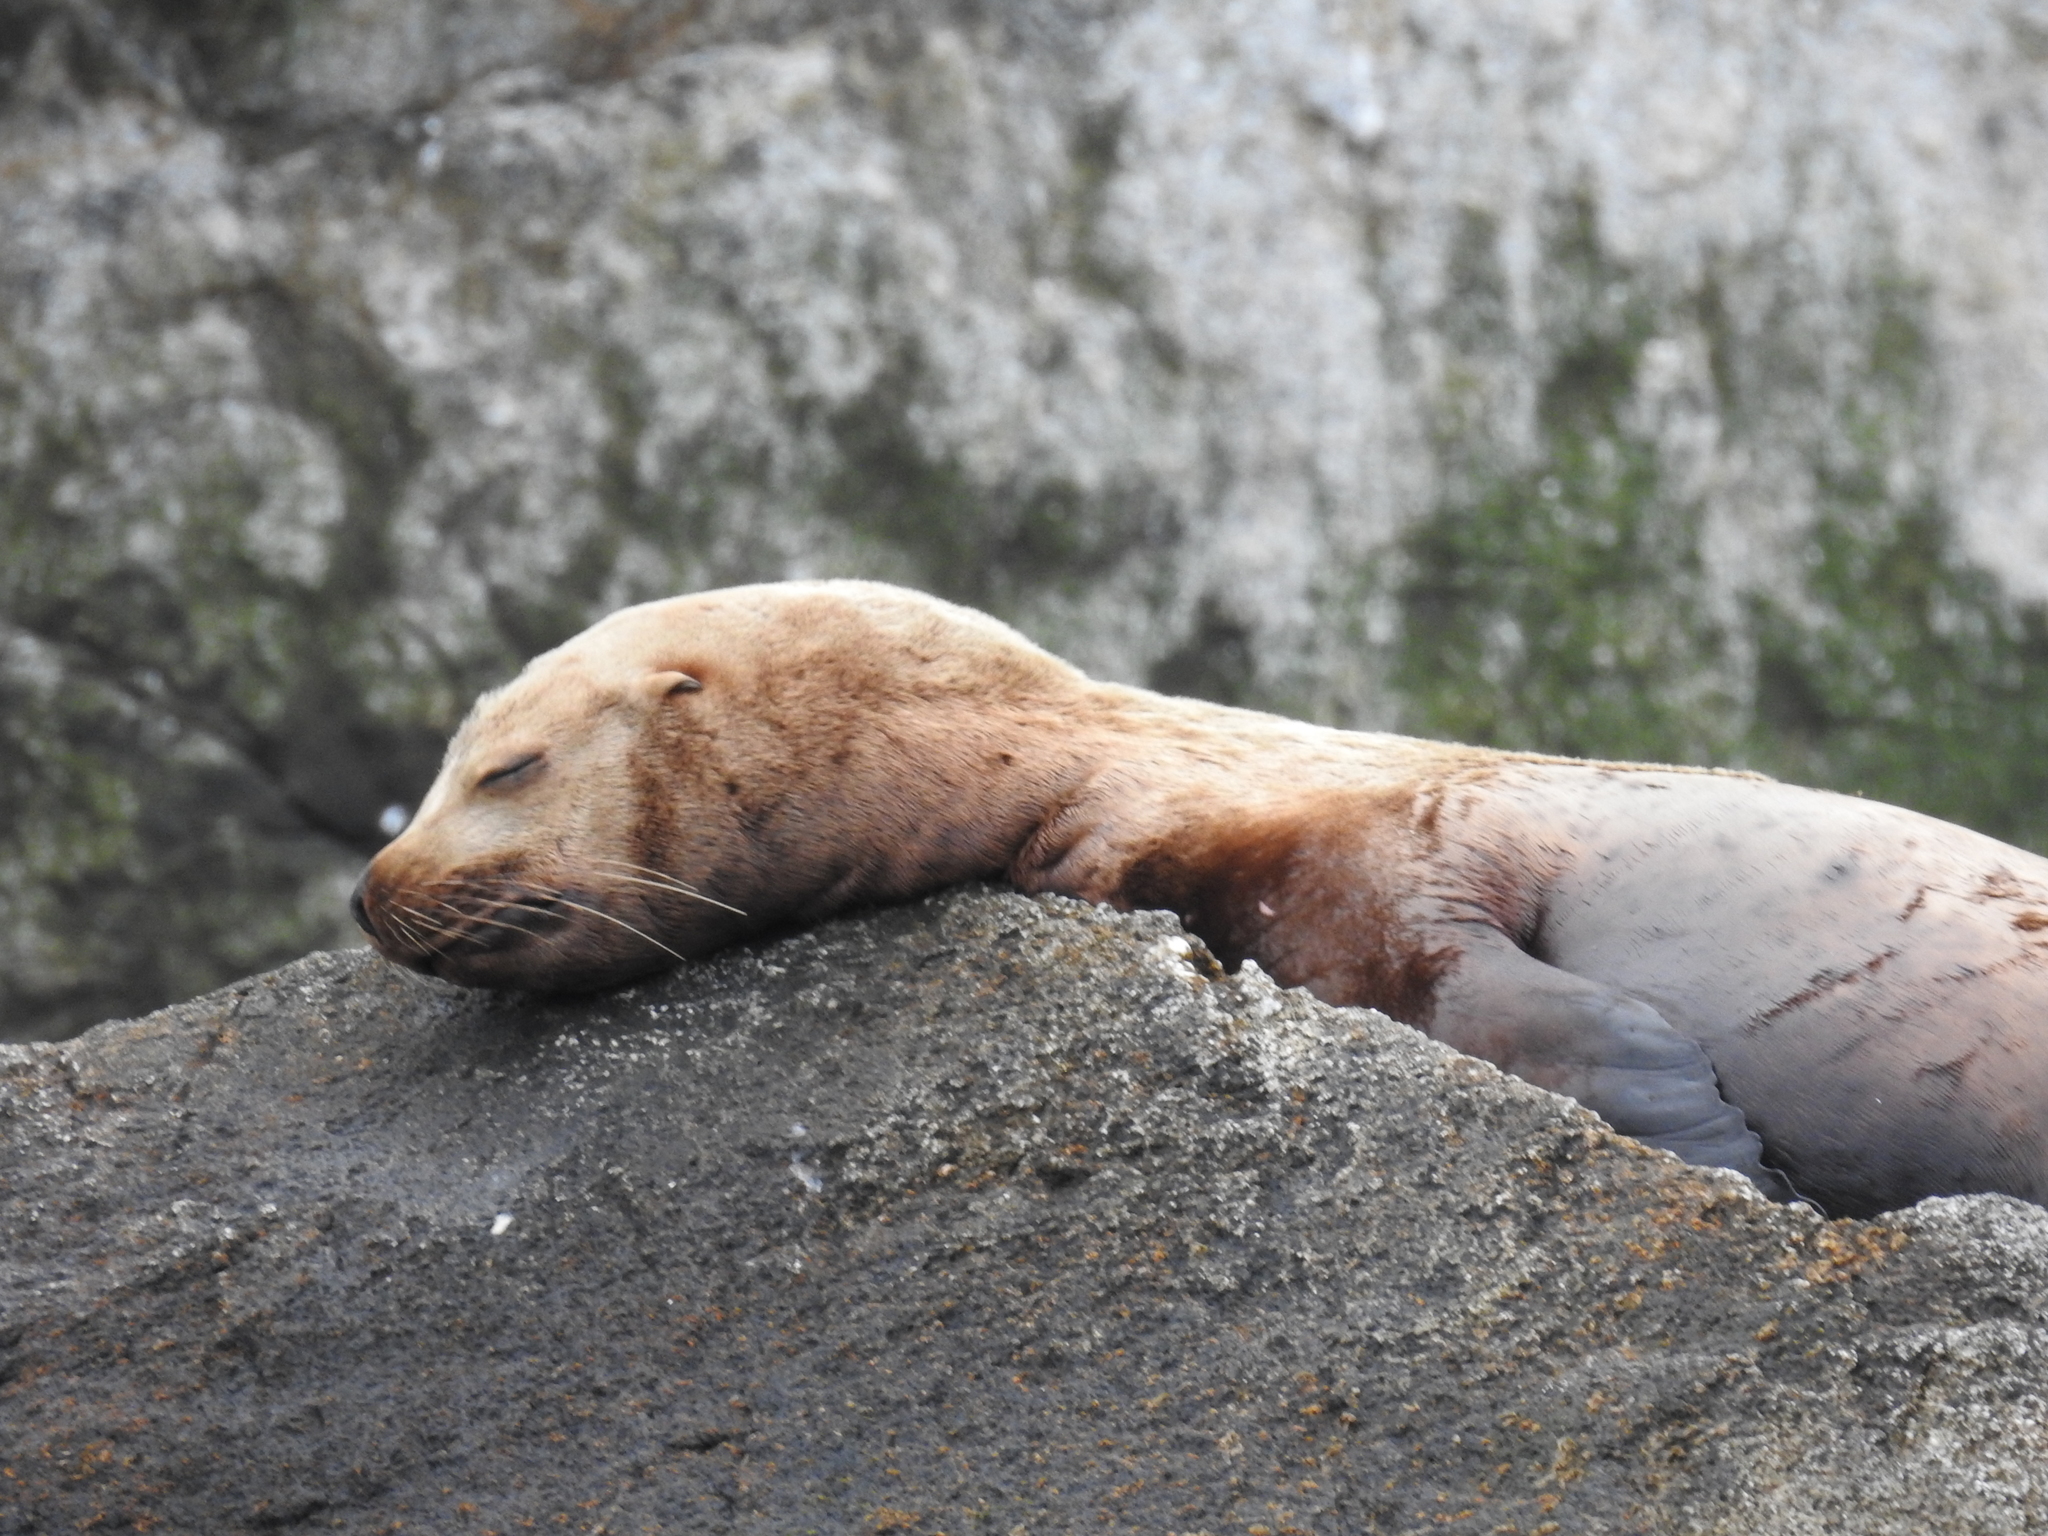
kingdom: Animalia
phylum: Chordata
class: Mammalia
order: Carnivora
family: Otariidae
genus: Eumetopias
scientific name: Eumetopias jubatus
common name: Steller sea lion
